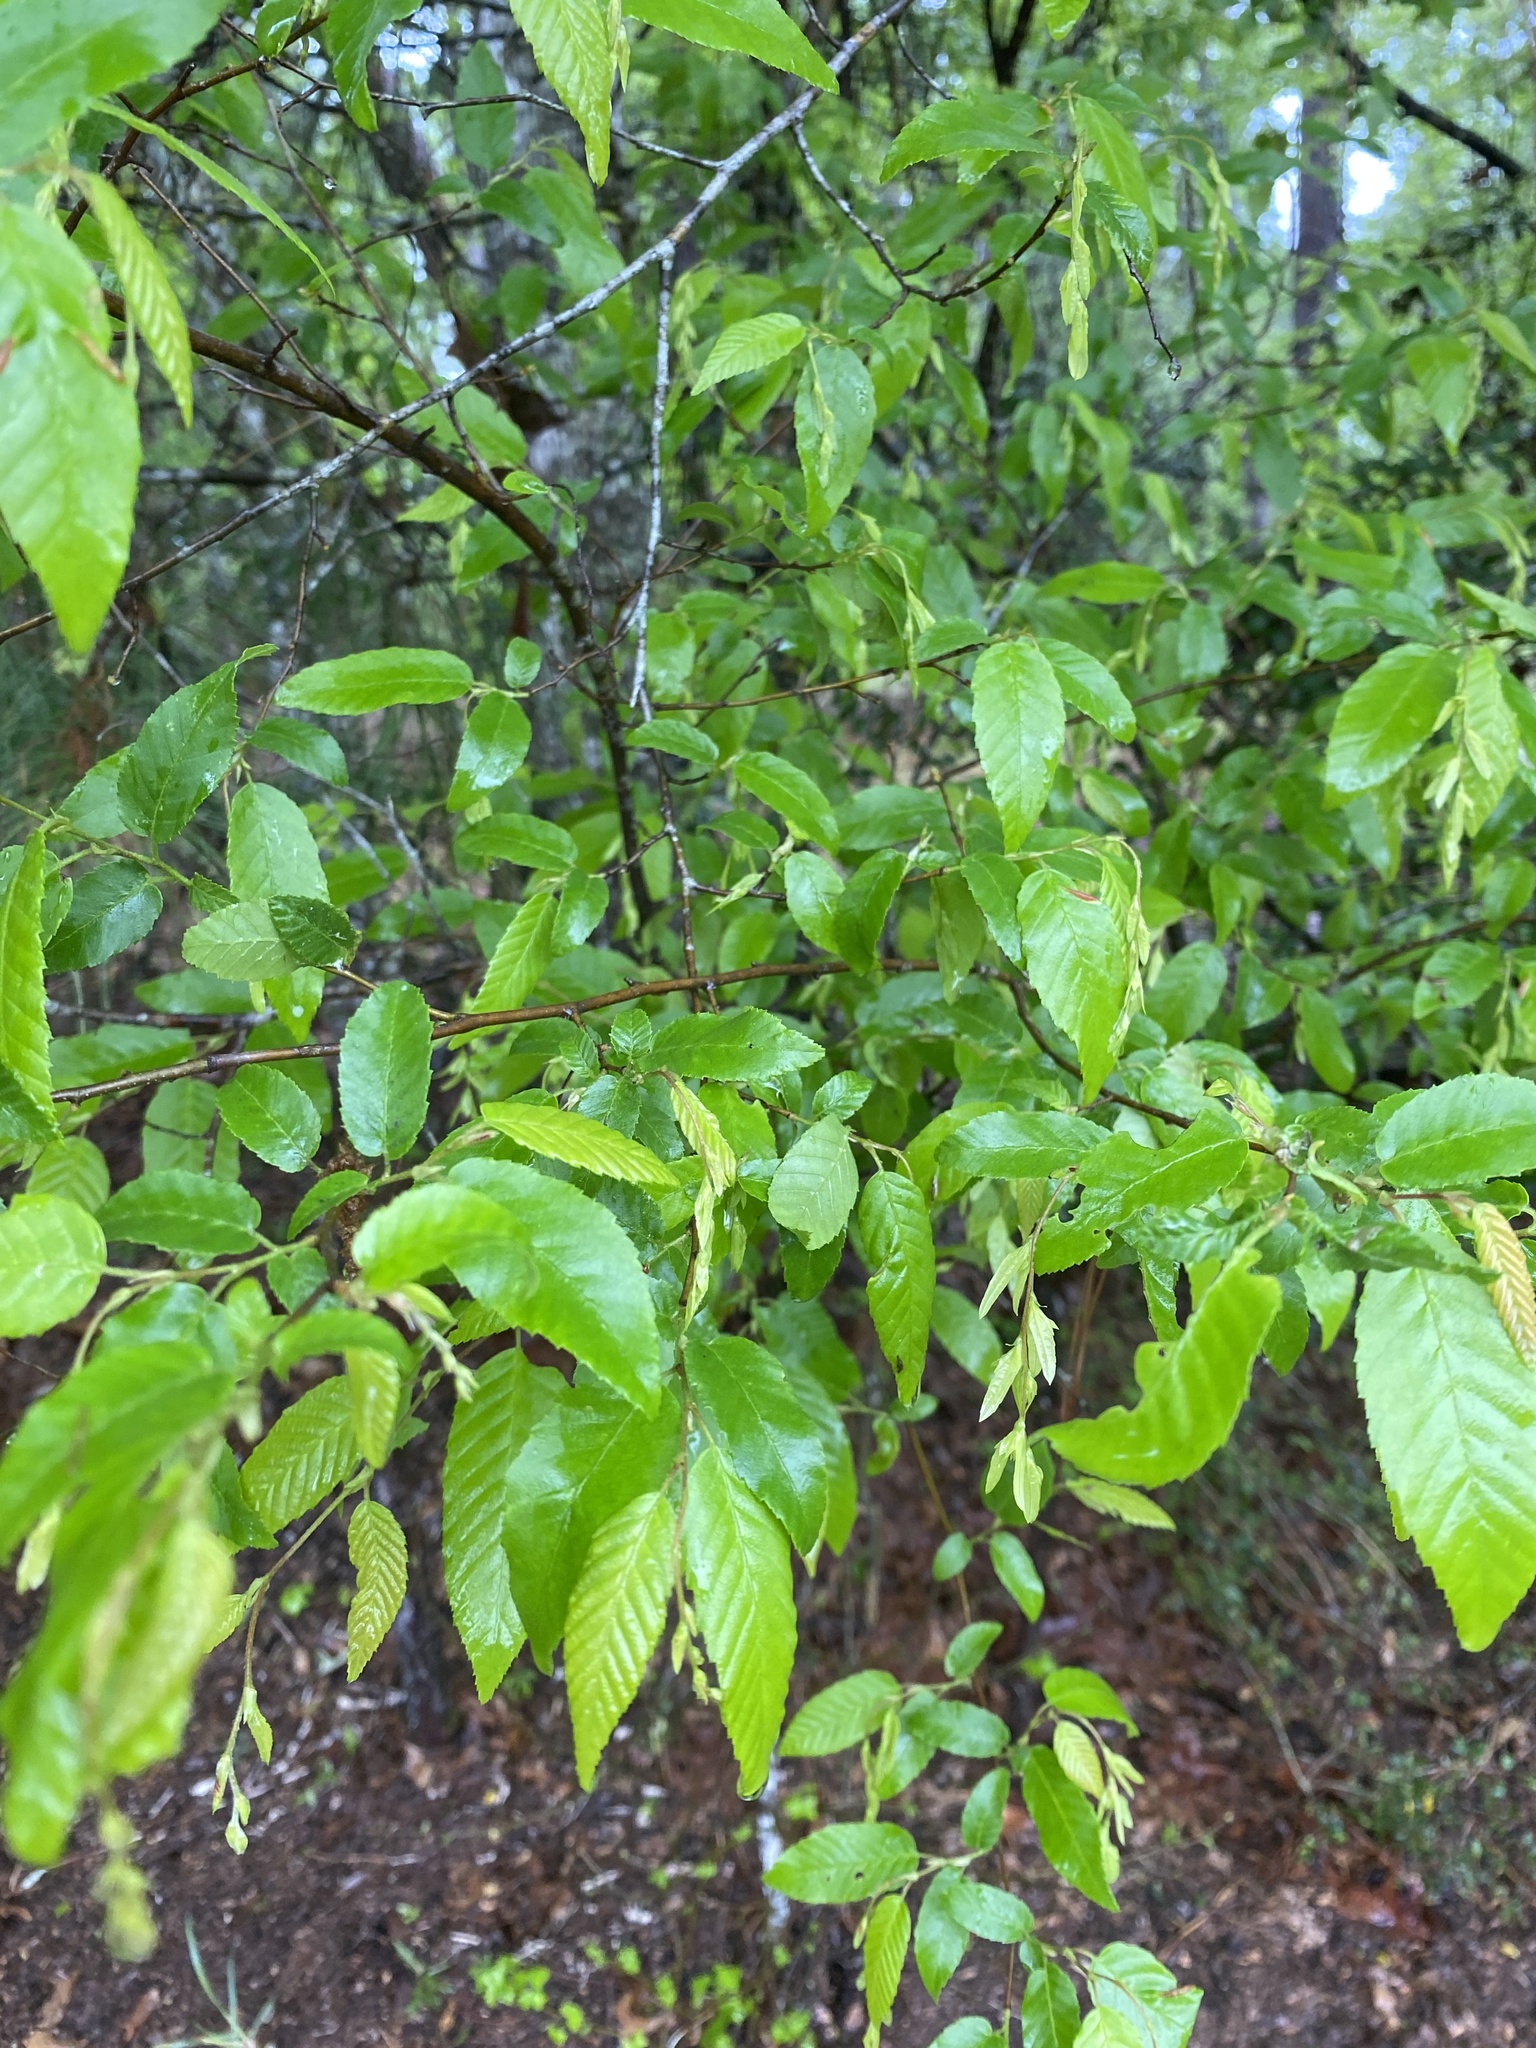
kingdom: Plantae
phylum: Tracheophyta
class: Magnoliopsida
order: Fagales
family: Betulaceae
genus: Carpinus
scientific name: Carpinus caroliniana
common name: American hornbeam
